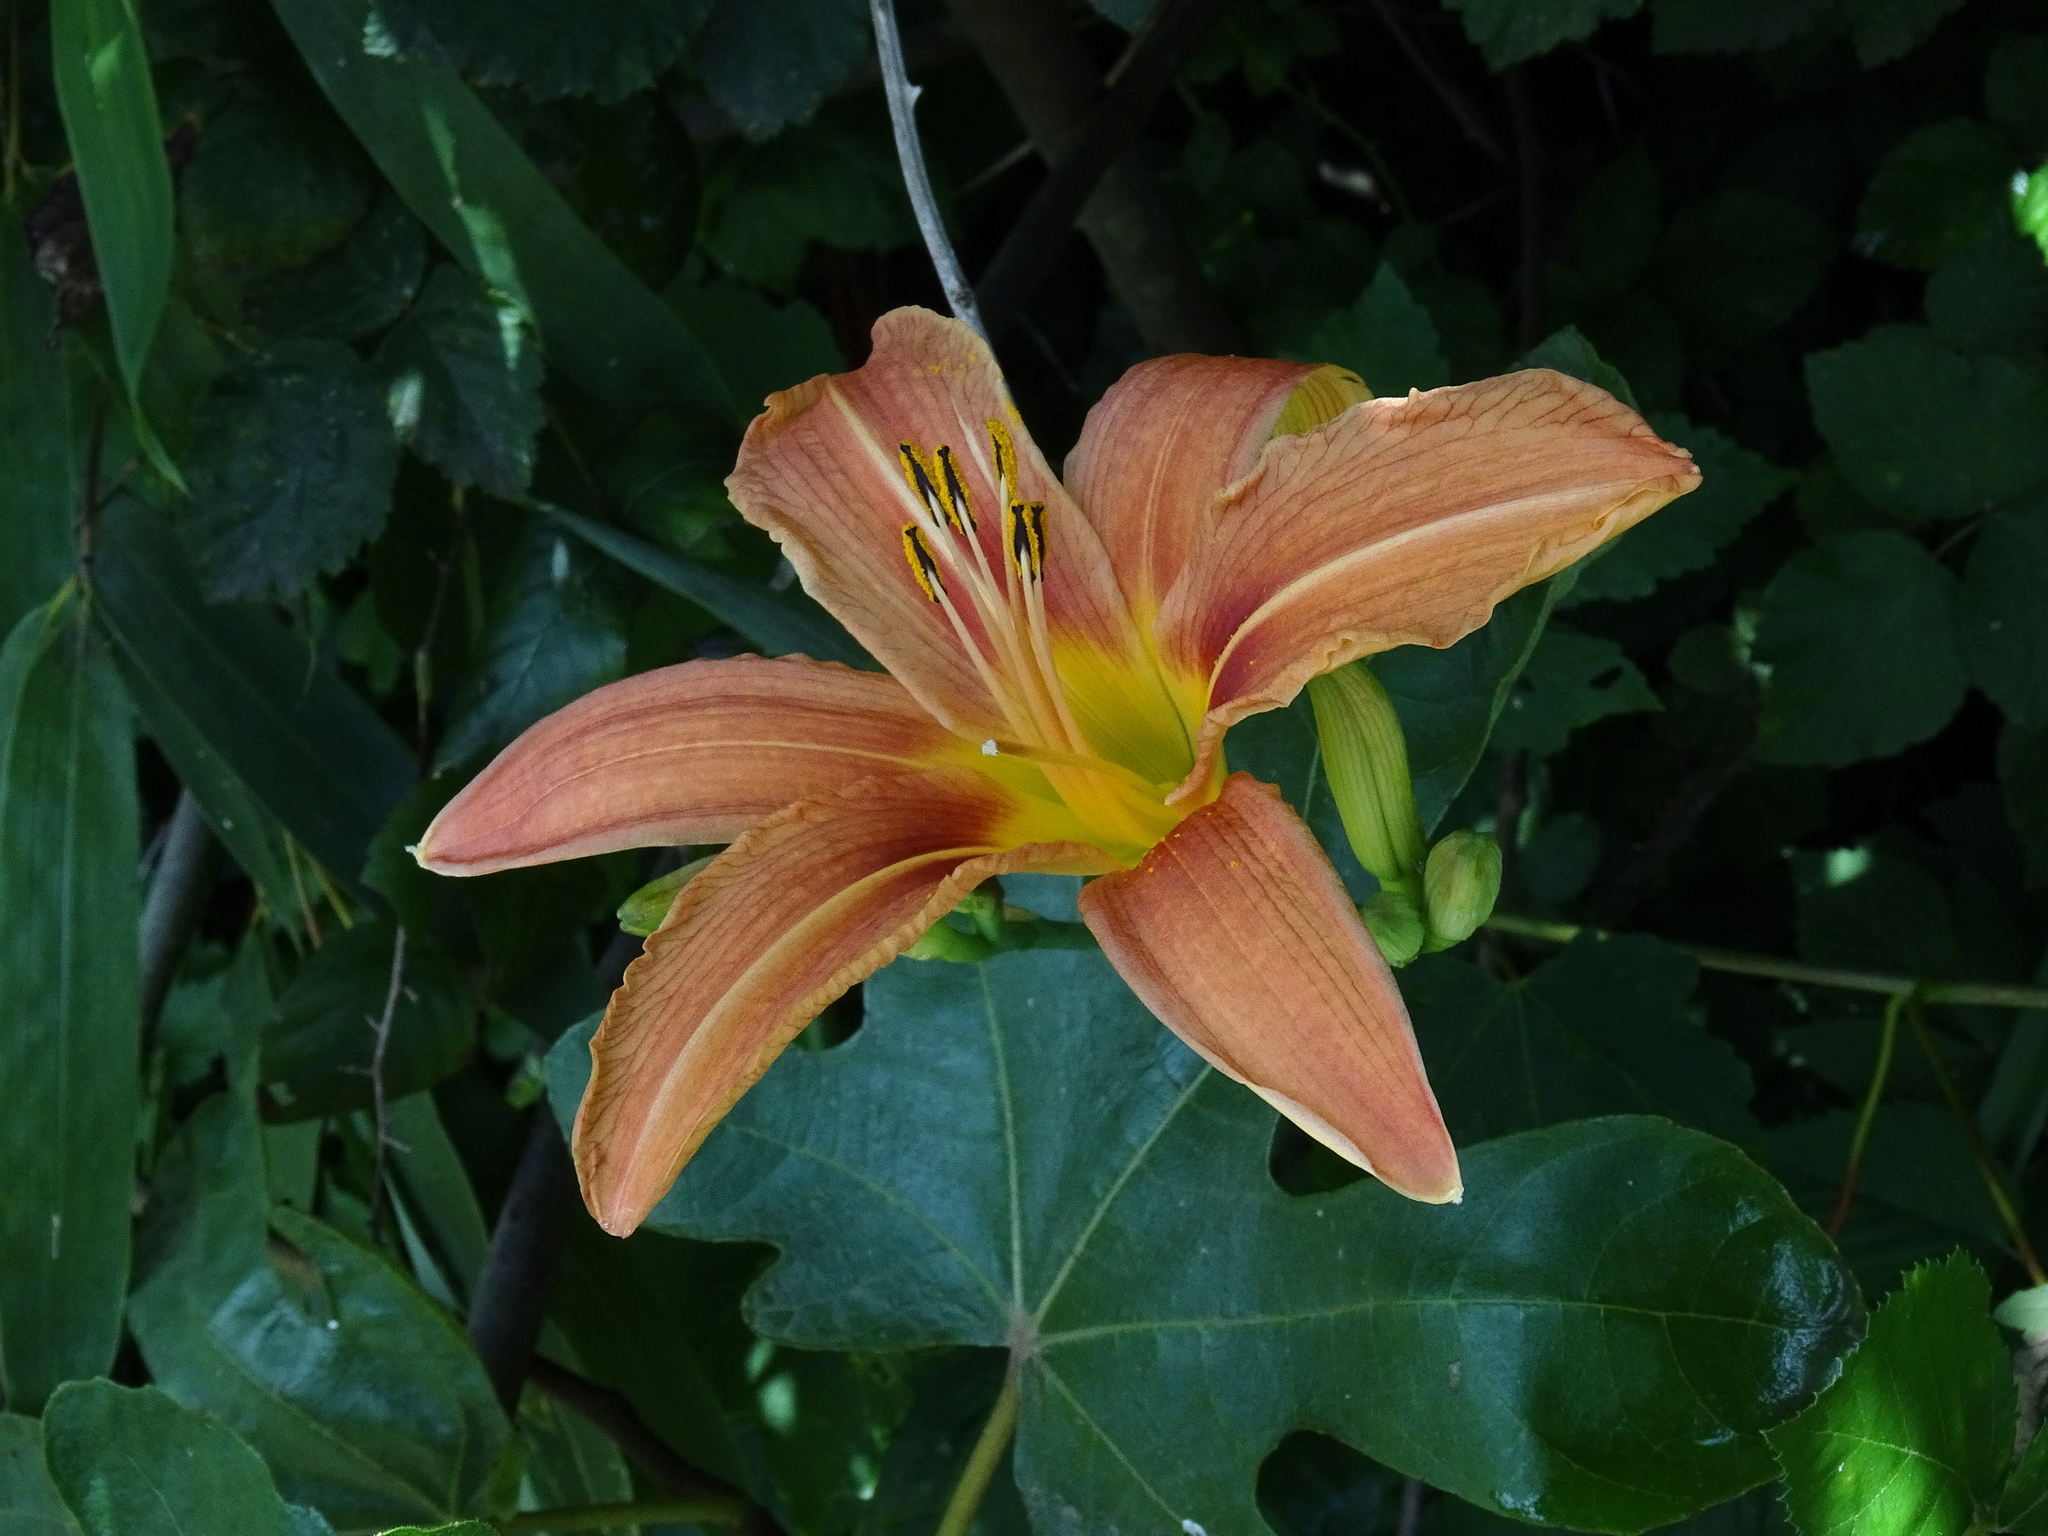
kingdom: Plantae
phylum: Tracheophyta
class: Liliopsida
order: Asparagales
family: Asphodelaceae
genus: Hemerocallis
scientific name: Hemerocallis fulva
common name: Orange day-lily
